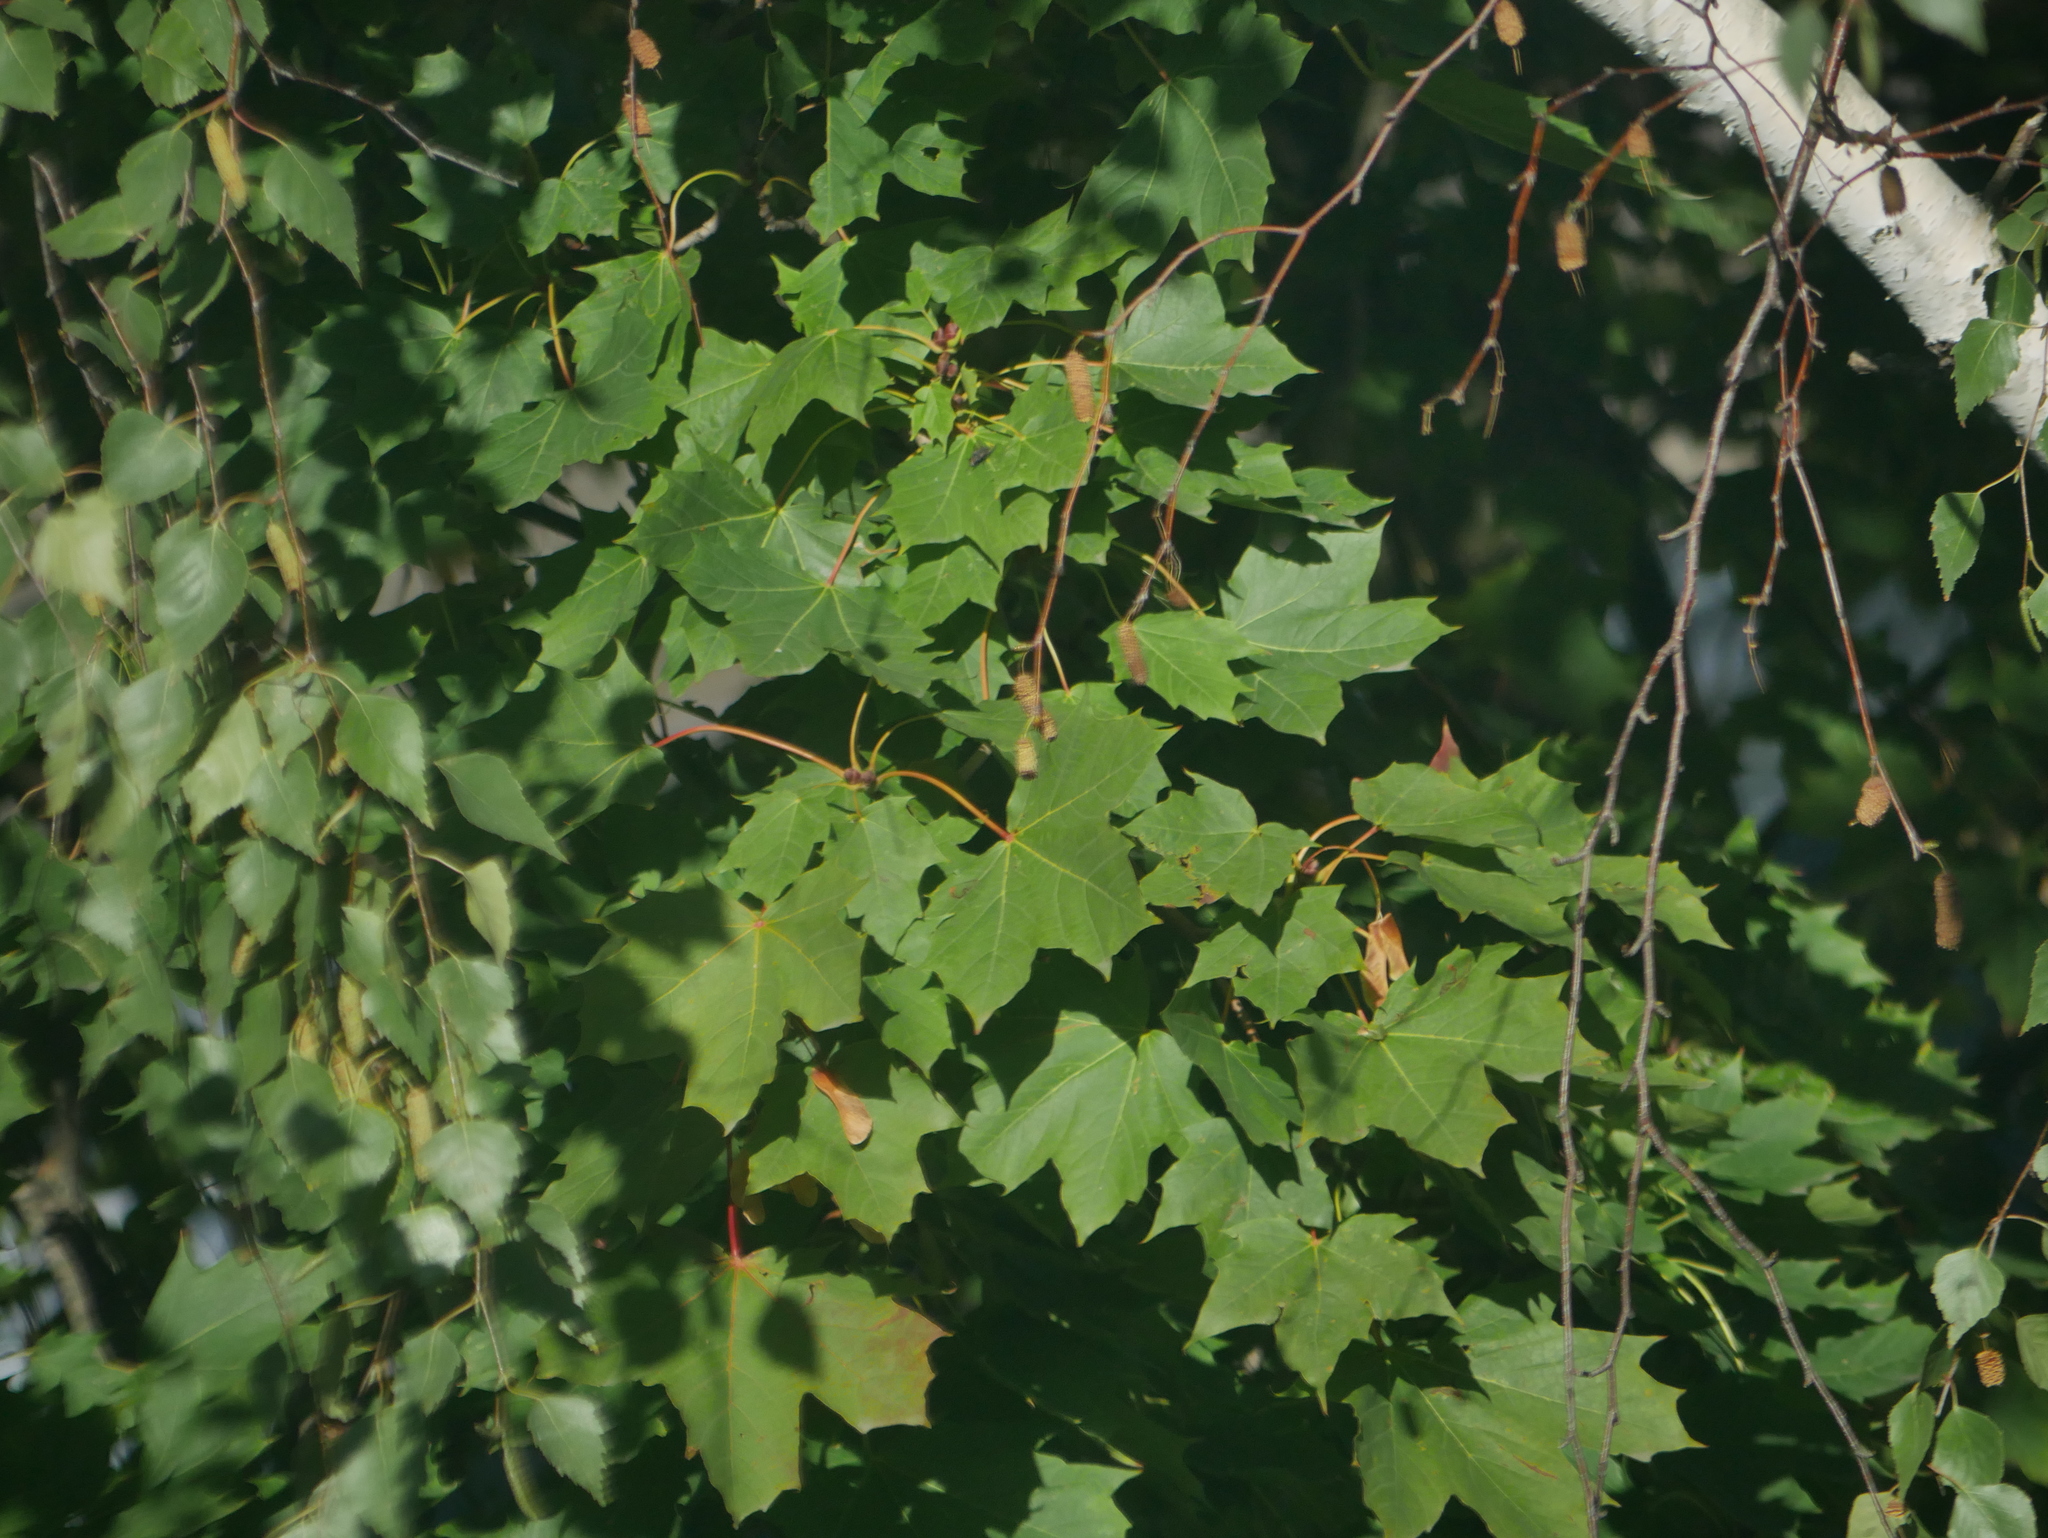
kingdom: Plantae
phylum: Tracheophyta
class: Magnoliopsida
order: Sapindales
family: Sapindaceae
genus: Acer
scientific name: Acer platanoides
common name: Norway maple
